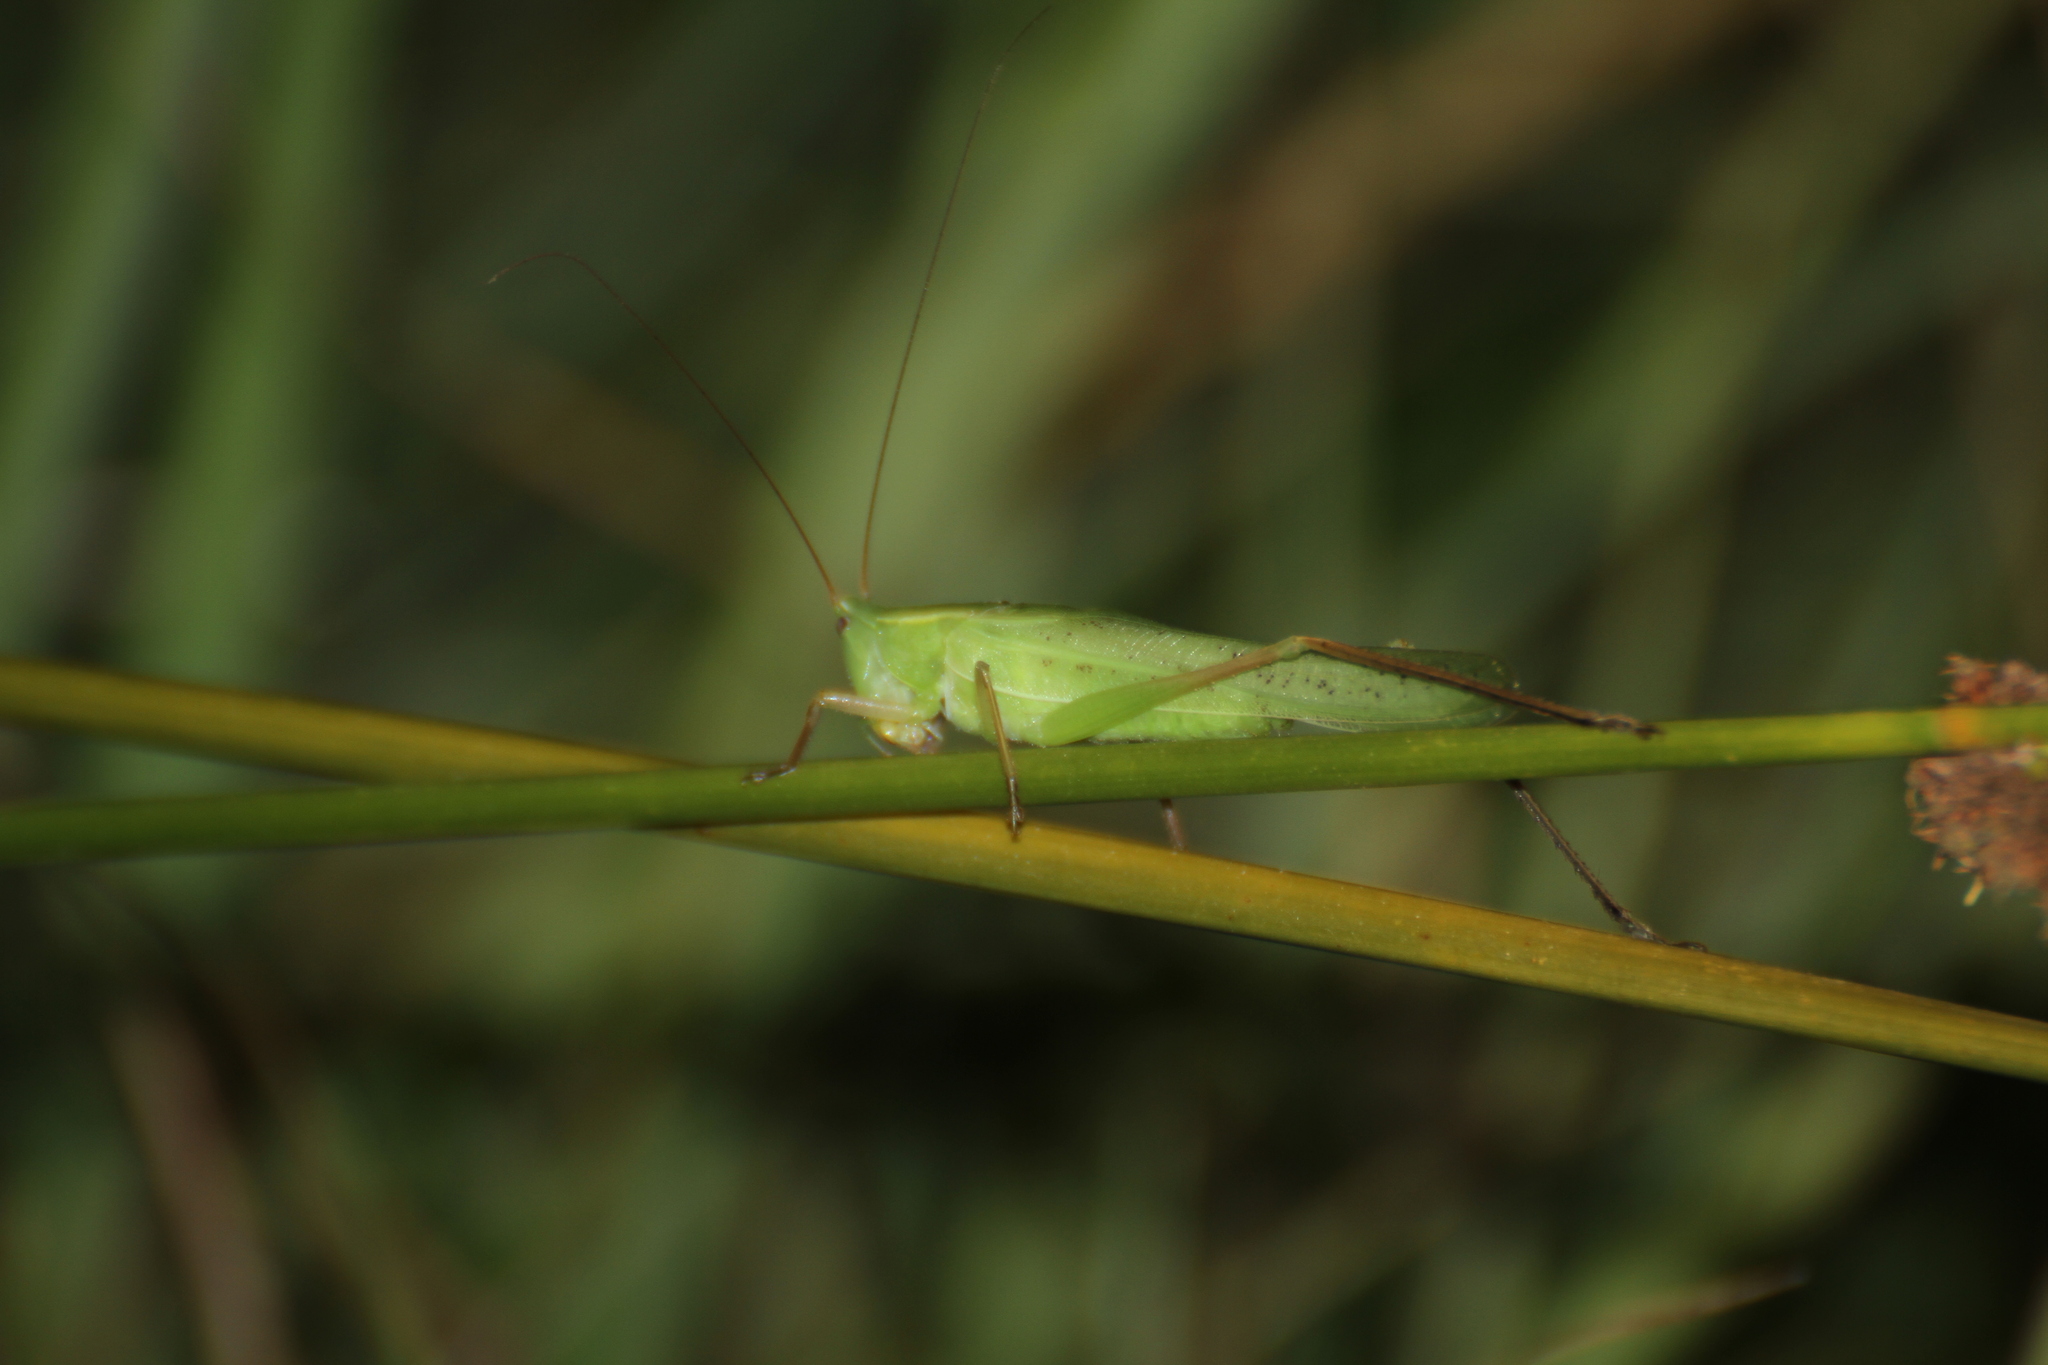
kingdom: Animalia
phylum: Arthropoda
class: Insecta
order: Orthoptera
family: Tettigoniidae
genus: Ruspolia
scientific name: Ruspolia nitidula
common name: Large conehead
